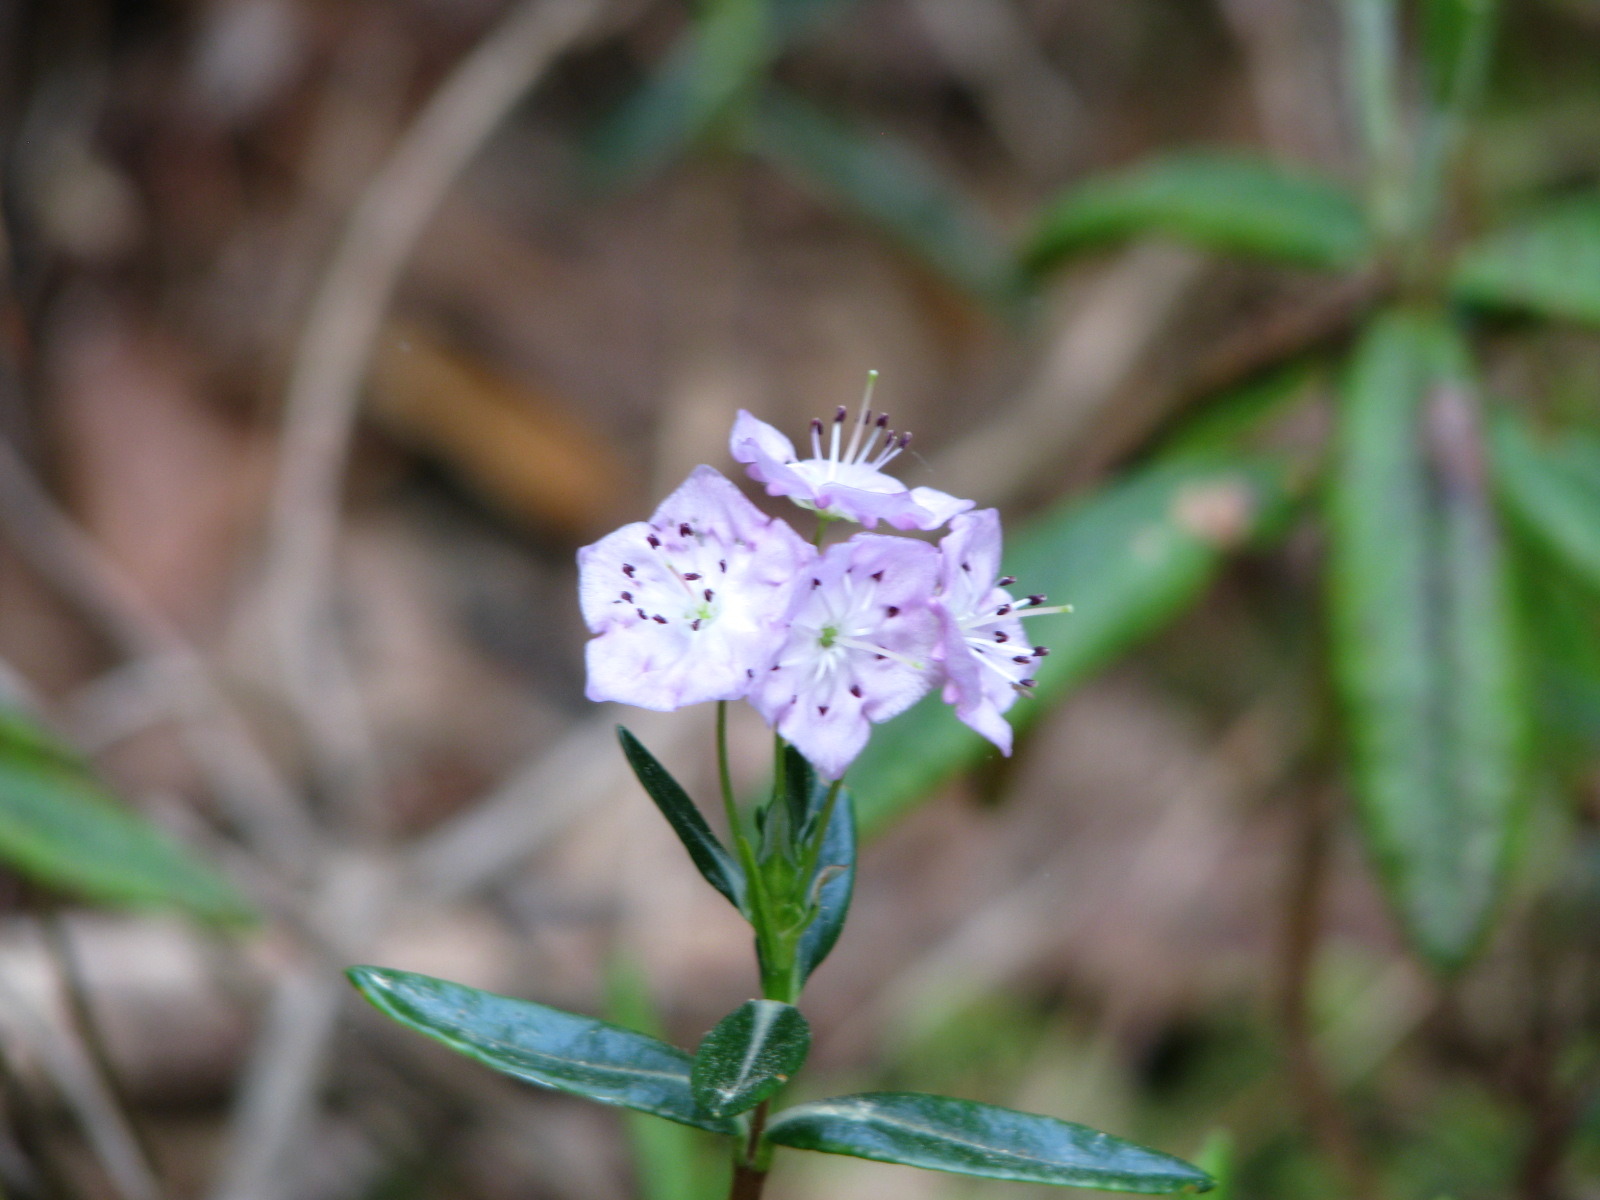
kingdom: Plantae
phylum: Tracheophyta
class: Magnoliopsida
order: Ericales
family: Ericaceae
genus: Kalmia
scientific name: Kalmia polifolia
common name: Bog-laurel
